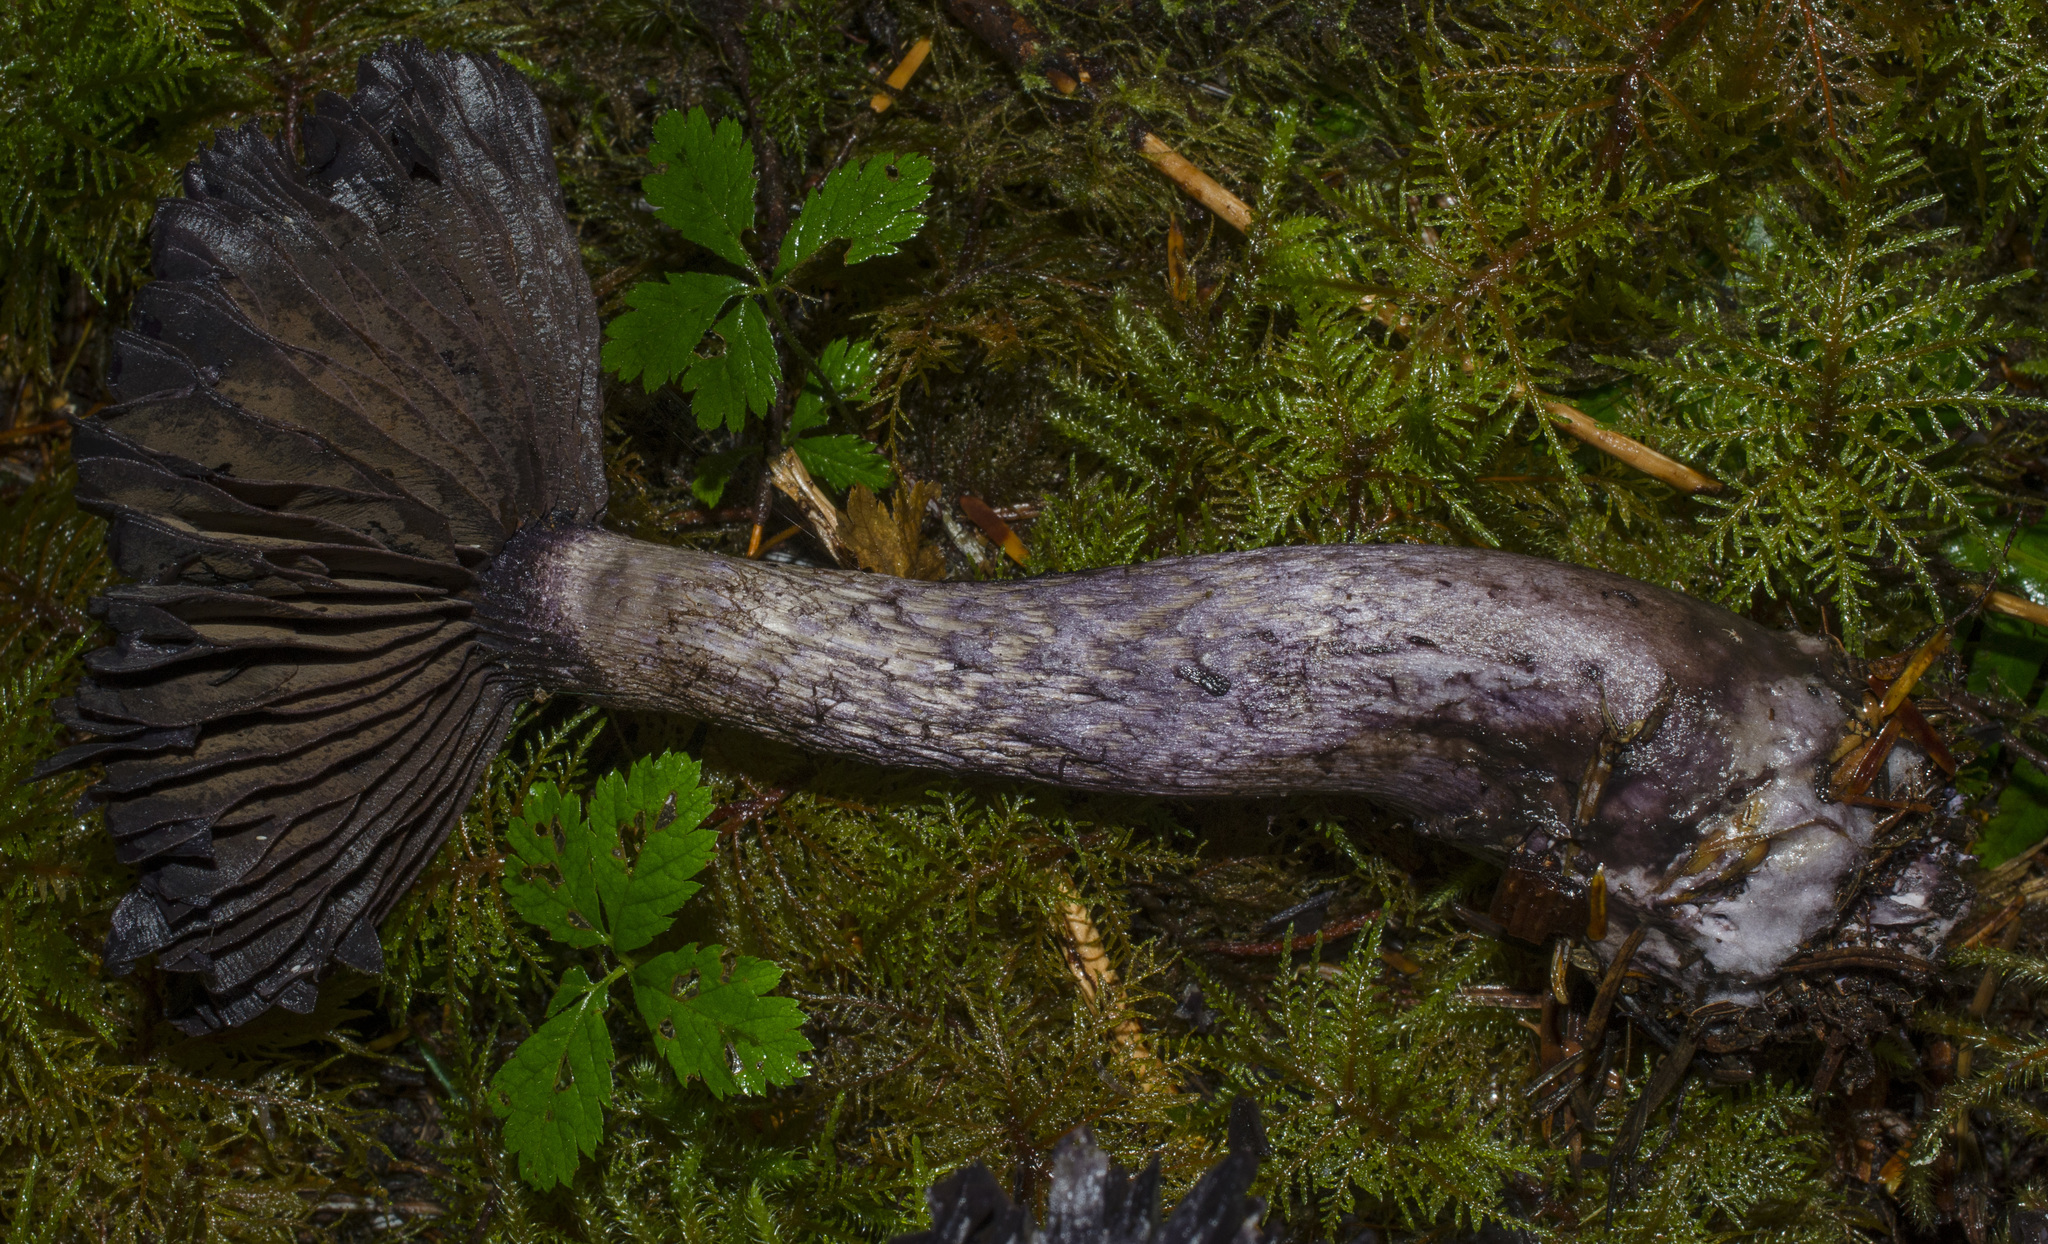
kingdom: Fungi
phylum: Basidiomycota
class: Agaricomycetes
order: Agaricales
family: Cortinariaceae
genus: Cortinarius
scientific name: Cortinarius violaceus
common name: Violet webcap
